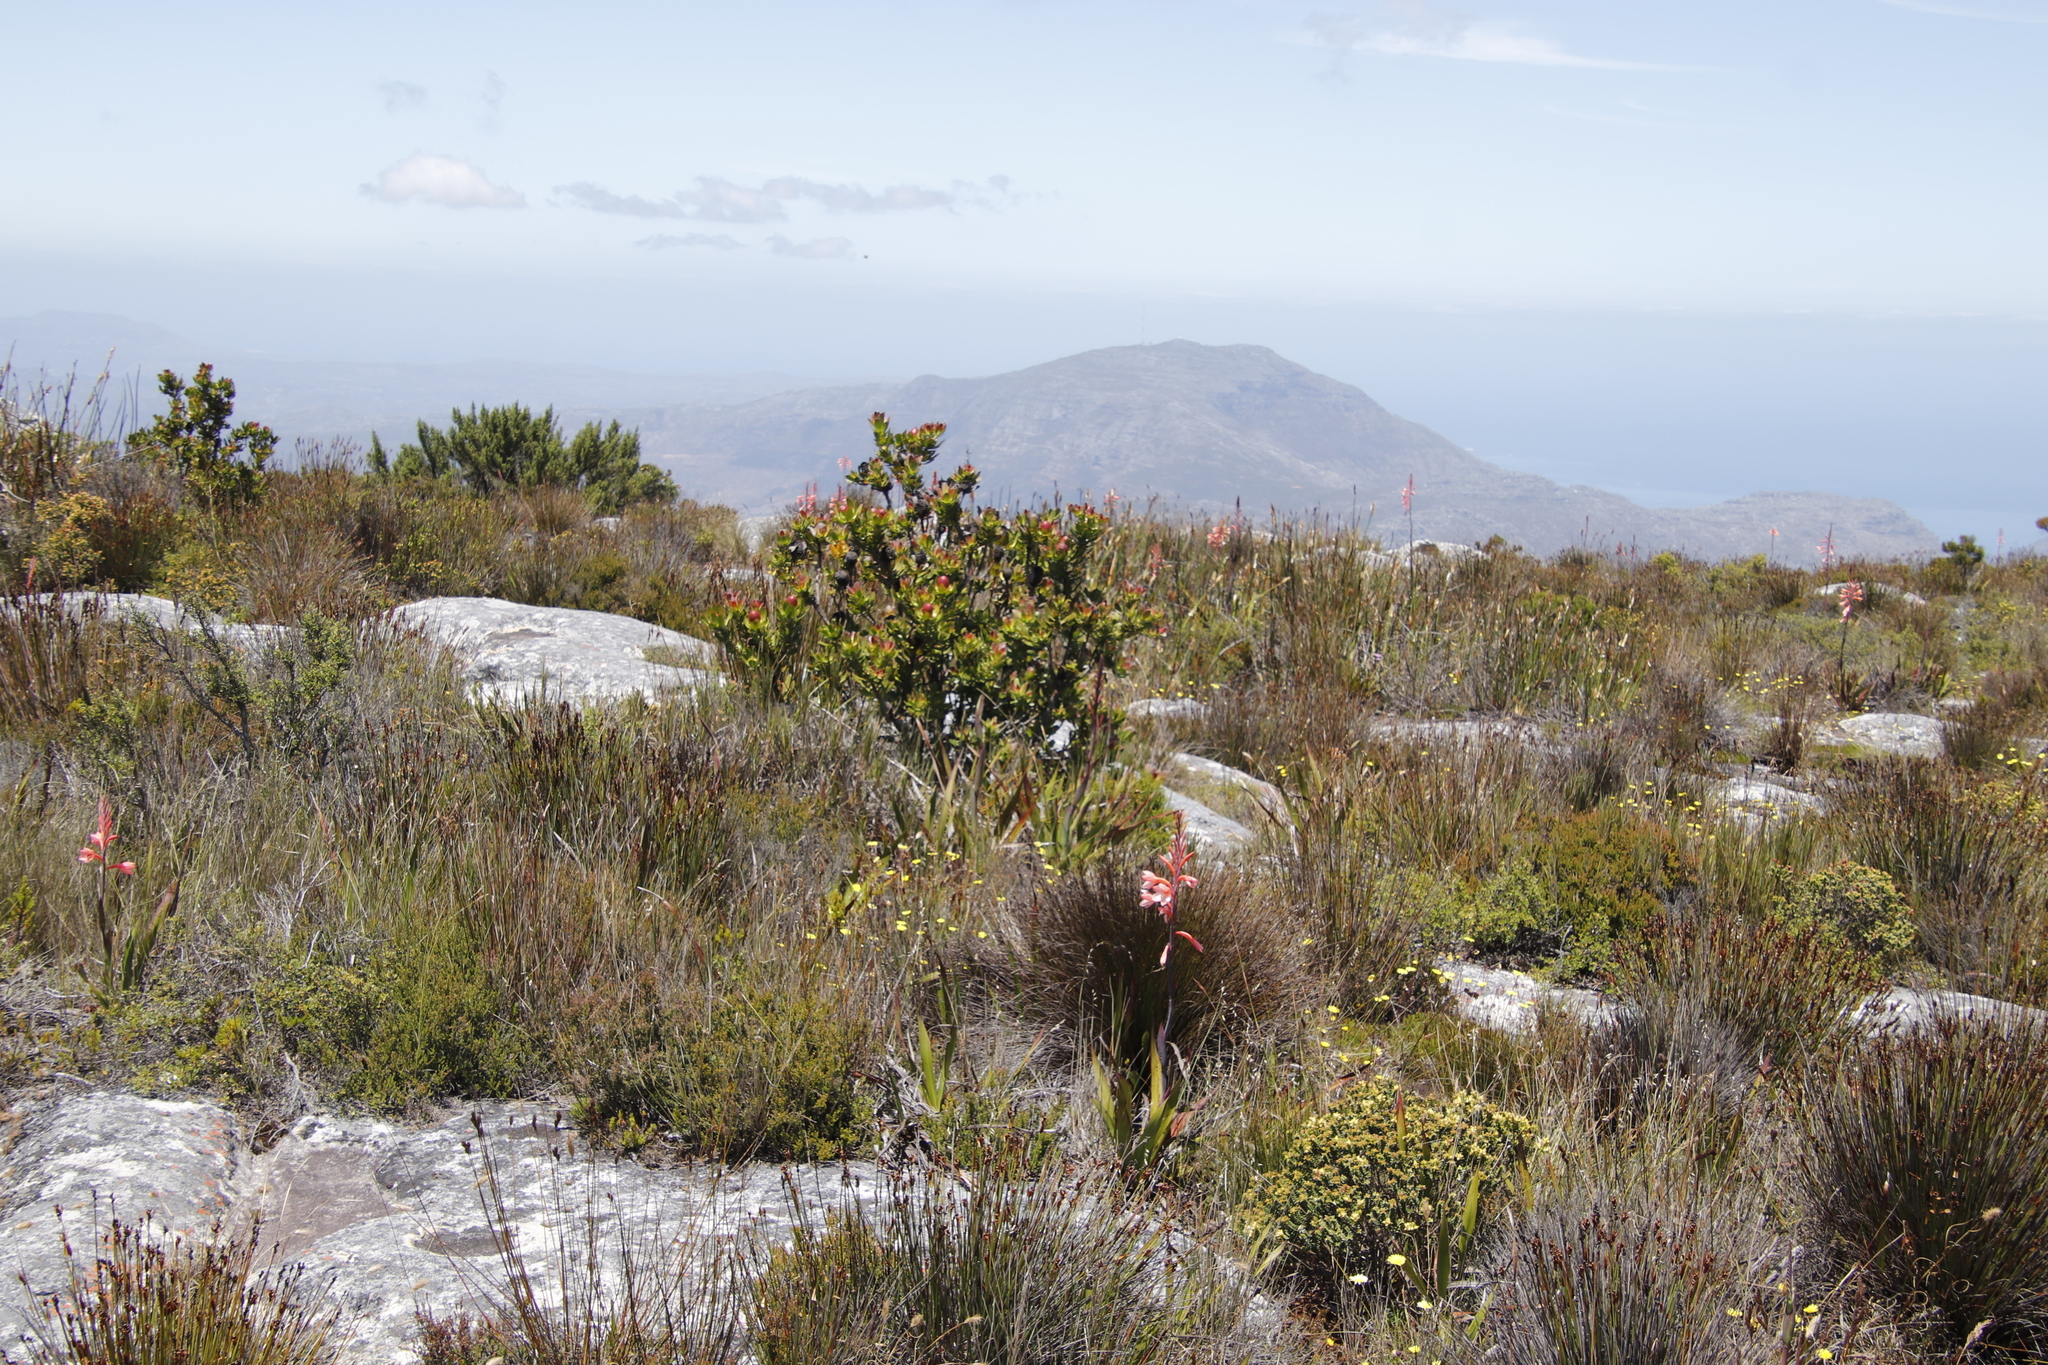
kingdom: Plantae
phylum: Tracheophyta
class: Magnoliopsida
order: Proteales
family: Proteaceae
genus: Leucadendron
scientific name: Leucadendron strobilinum
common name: Mountain rose
